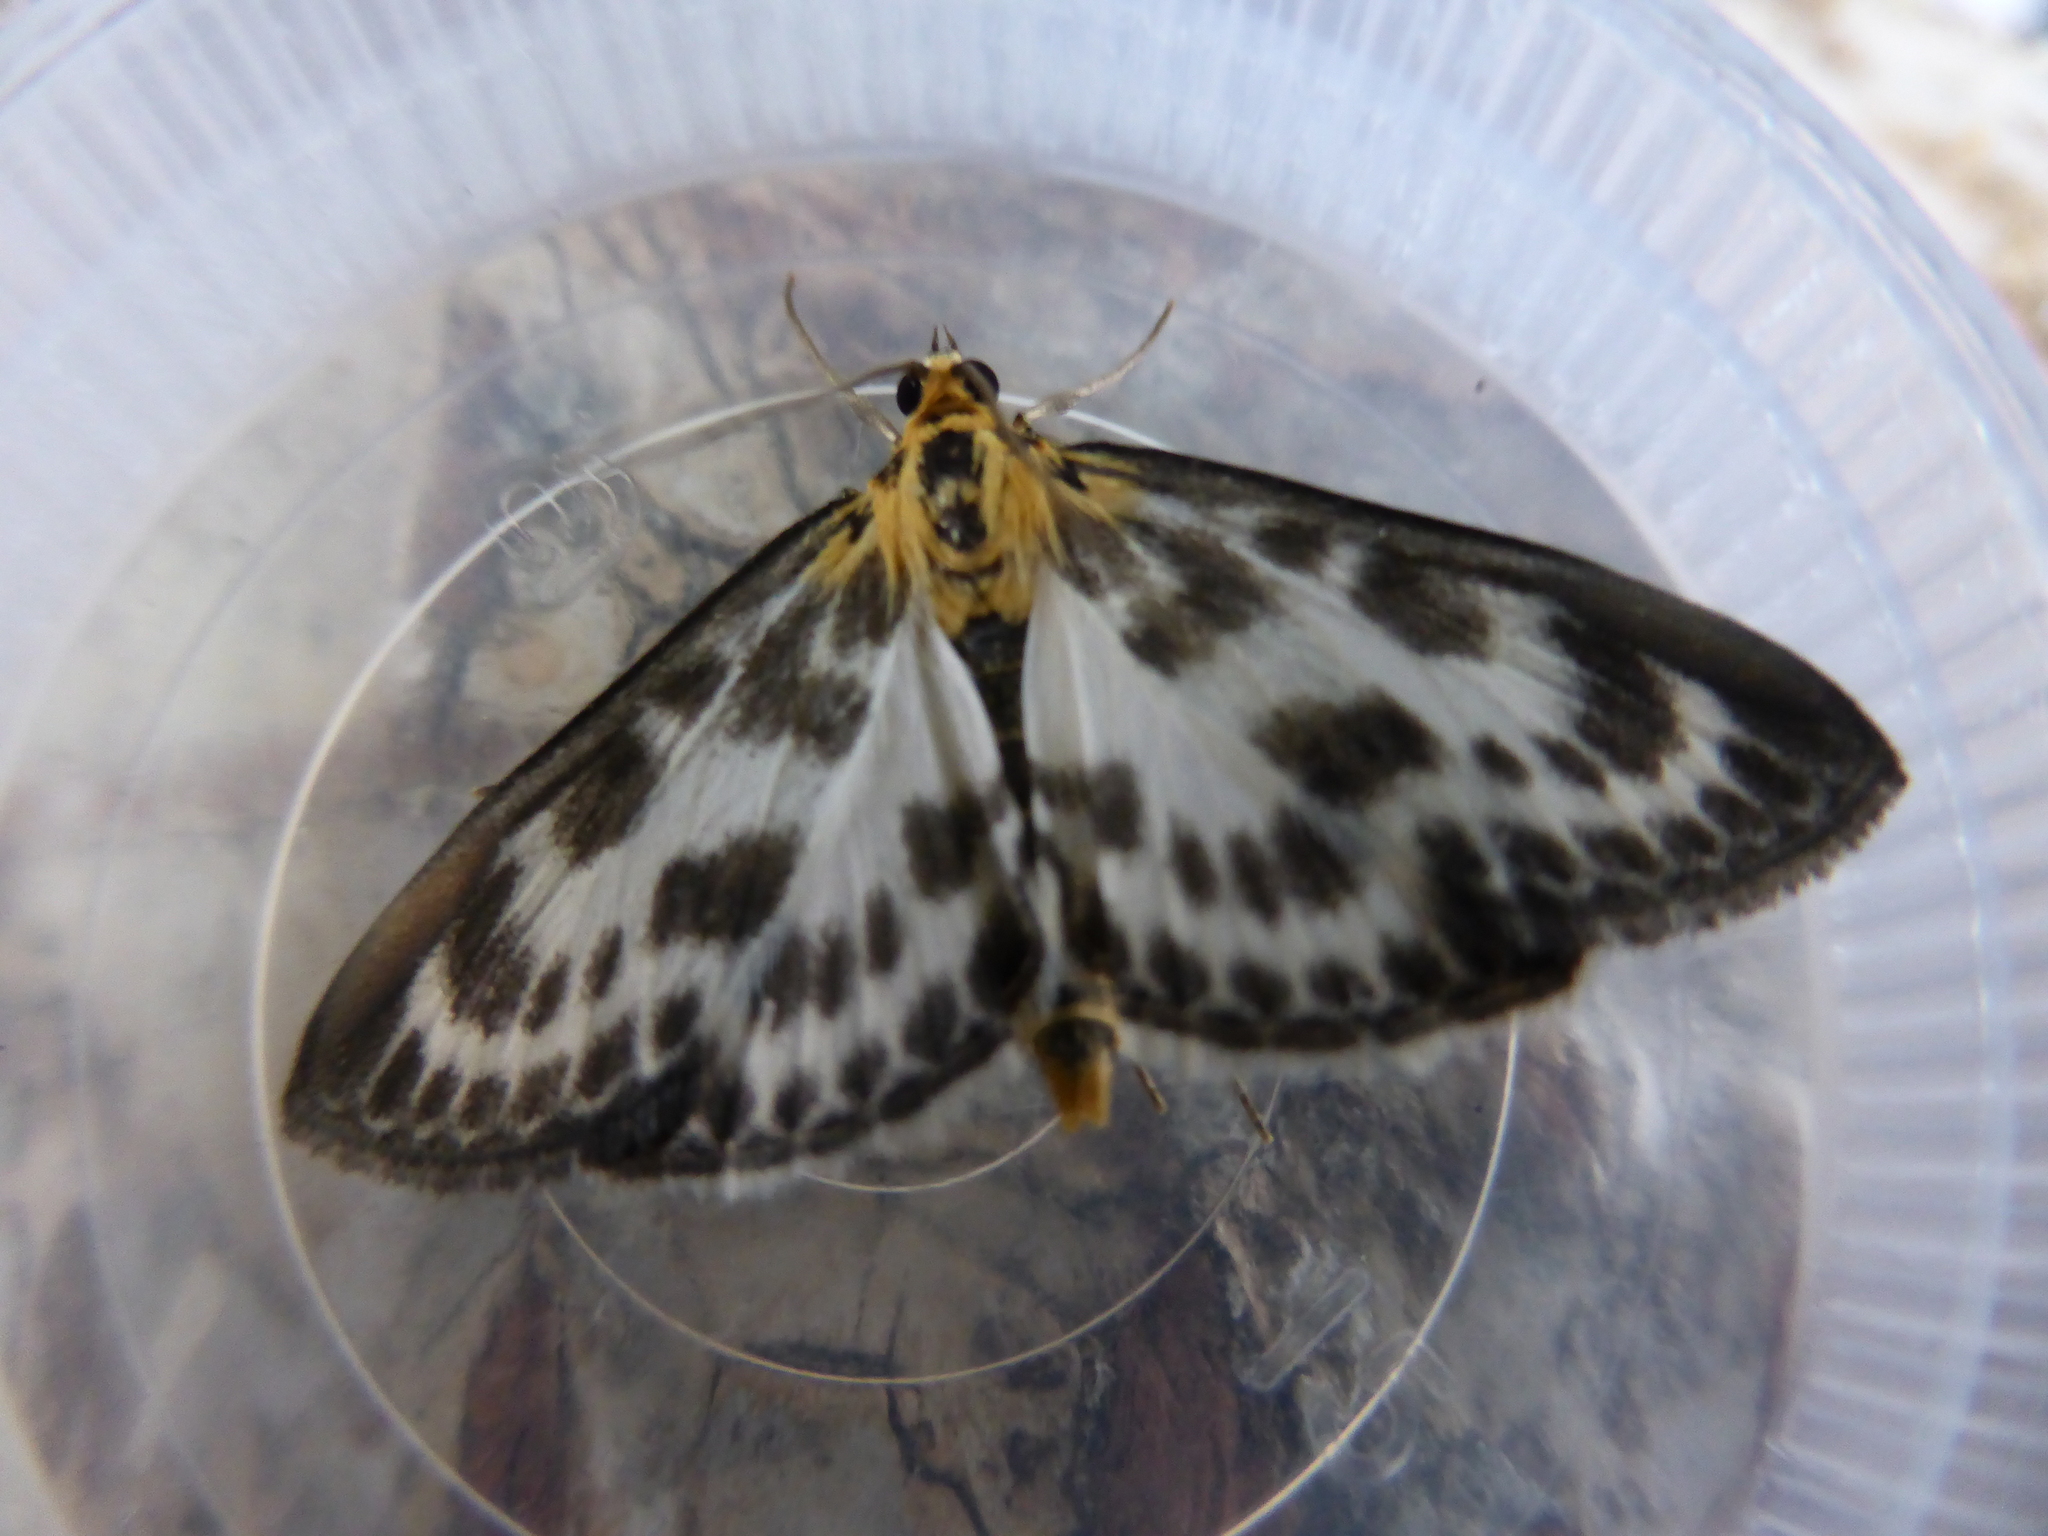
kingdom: Animalia
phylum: Arthropoda
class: Insecta
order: Lepidoptera
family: Crambidae
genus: Anania
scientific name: Anania hortulata
